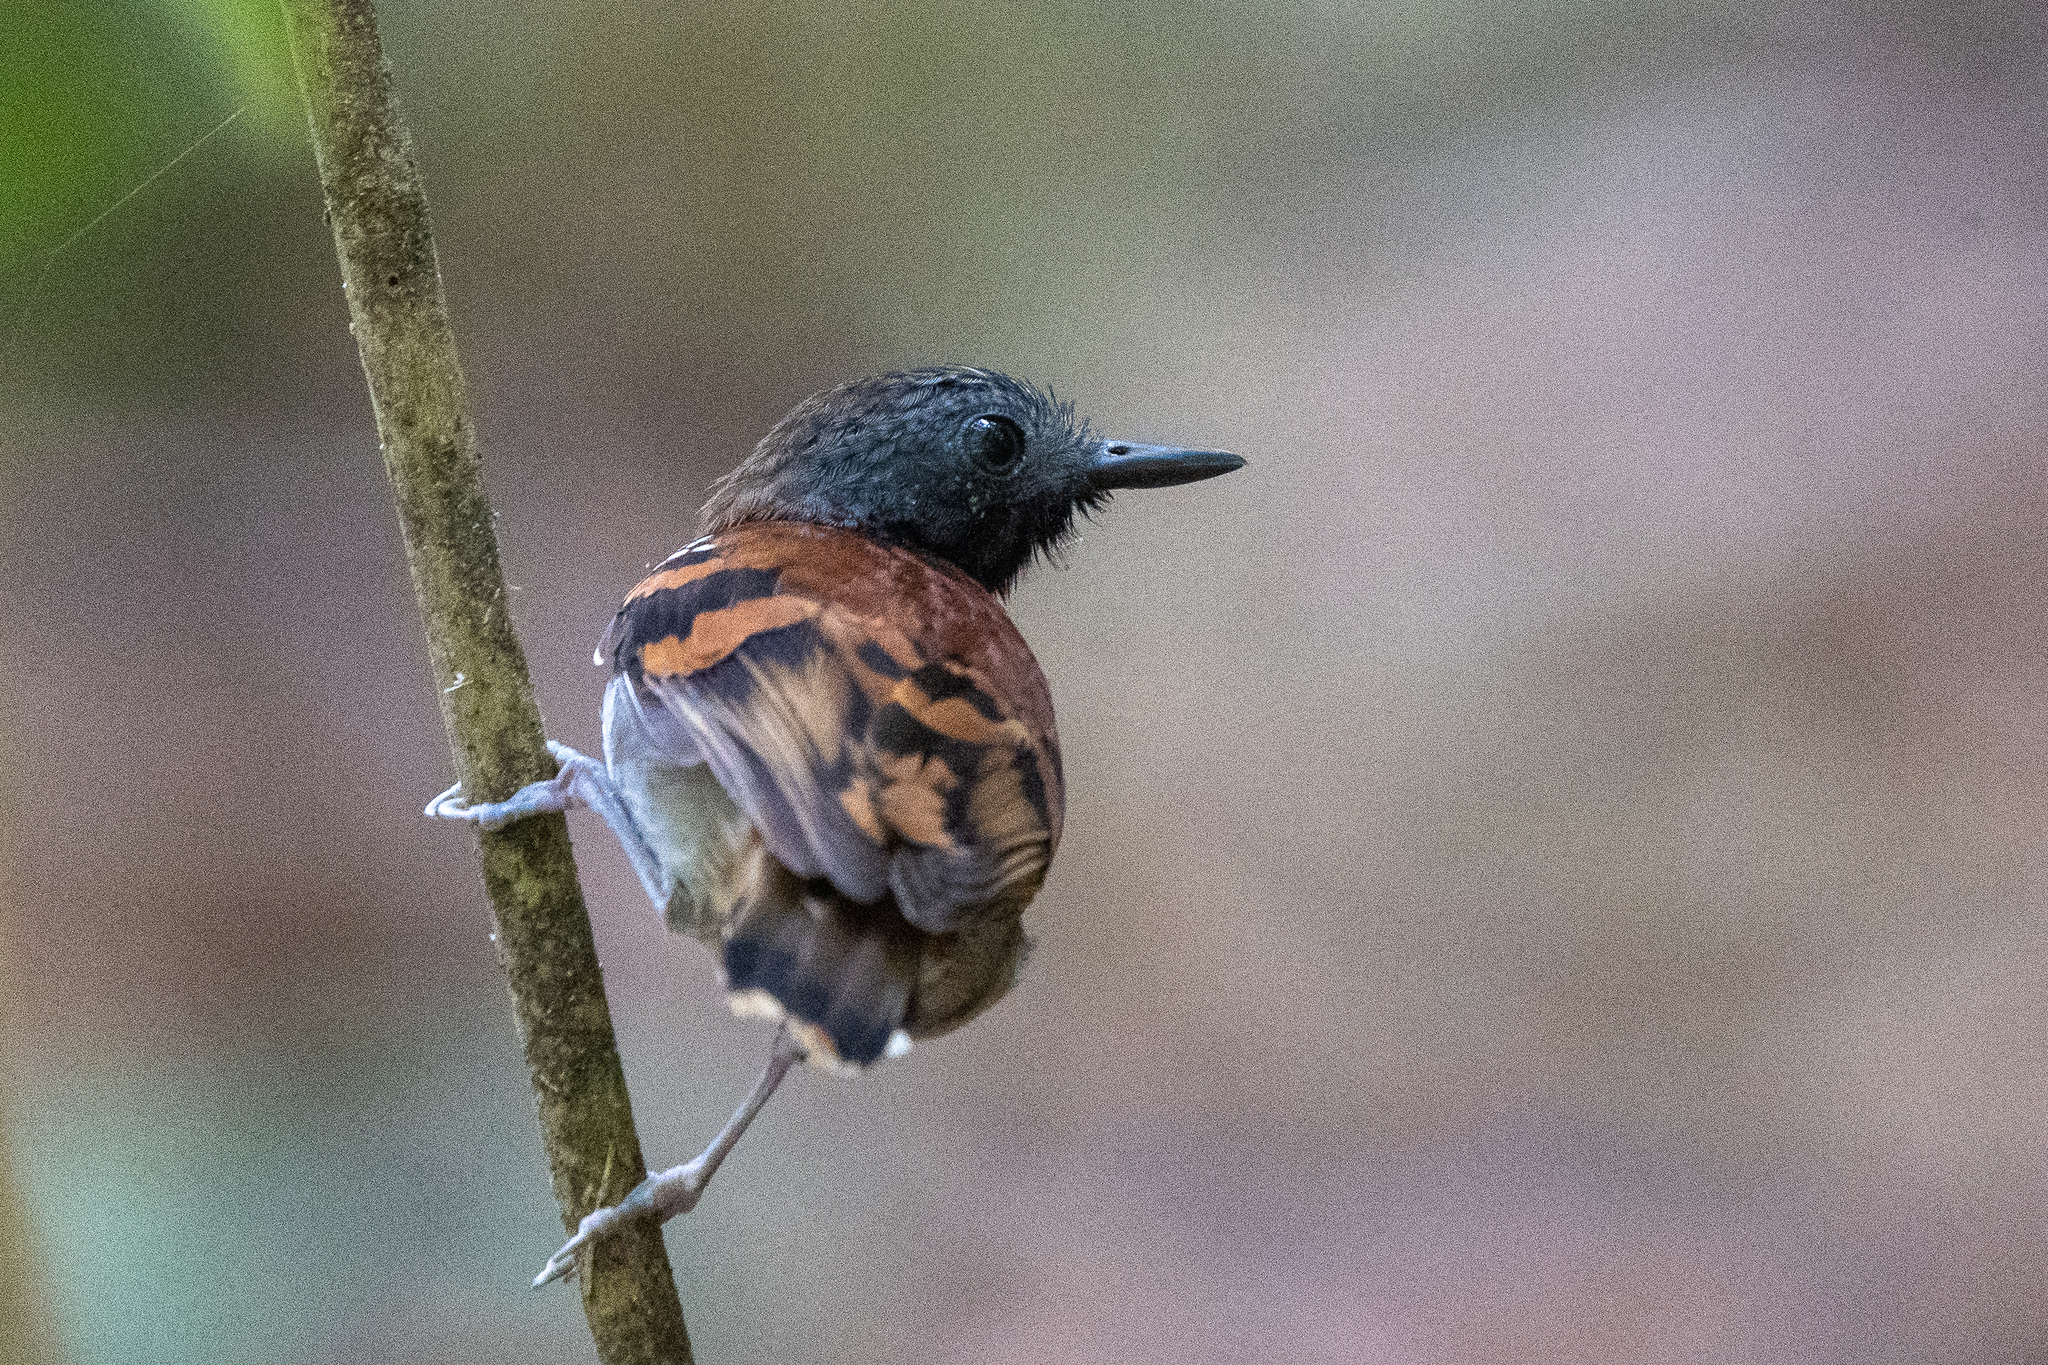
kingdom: Animalia
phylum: Chordata
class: Aves
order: Passeriformes
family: Thamnophilidae
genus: Hylophylax
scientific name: Hylophylax naevioides
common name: Spotted antbird
